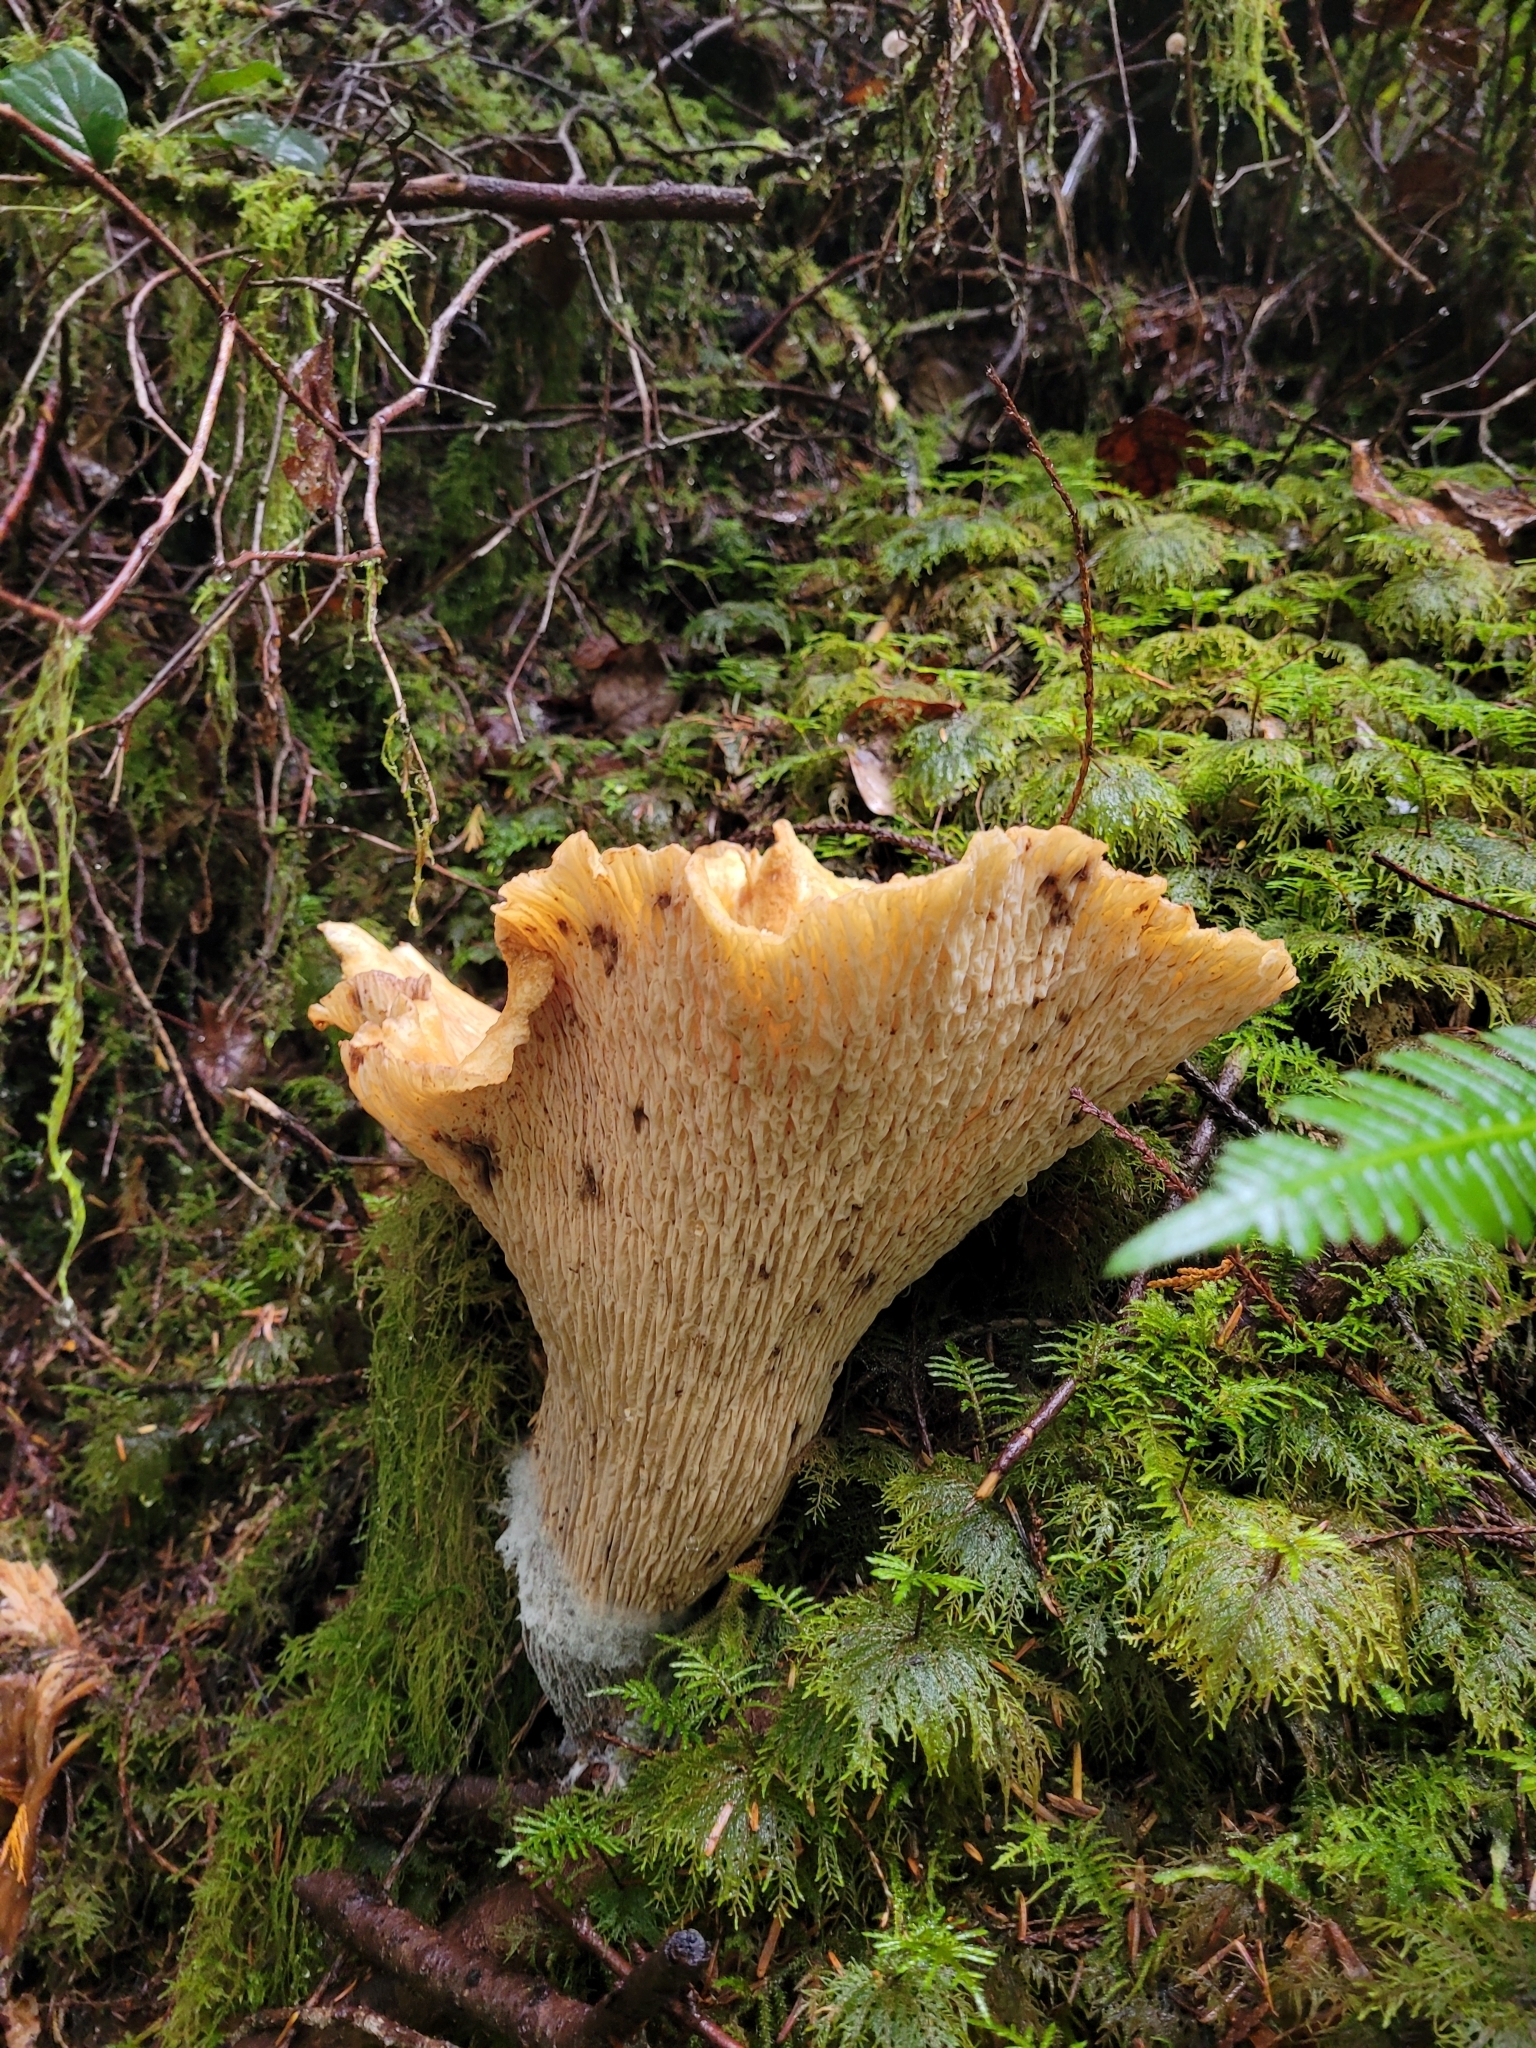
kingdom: Fungi
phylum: Basidiomycota
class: Agaricomycetes
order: Gomphales
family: Gomphaceae
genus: Turbinellus
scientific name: Turbinellus kauffmanii
